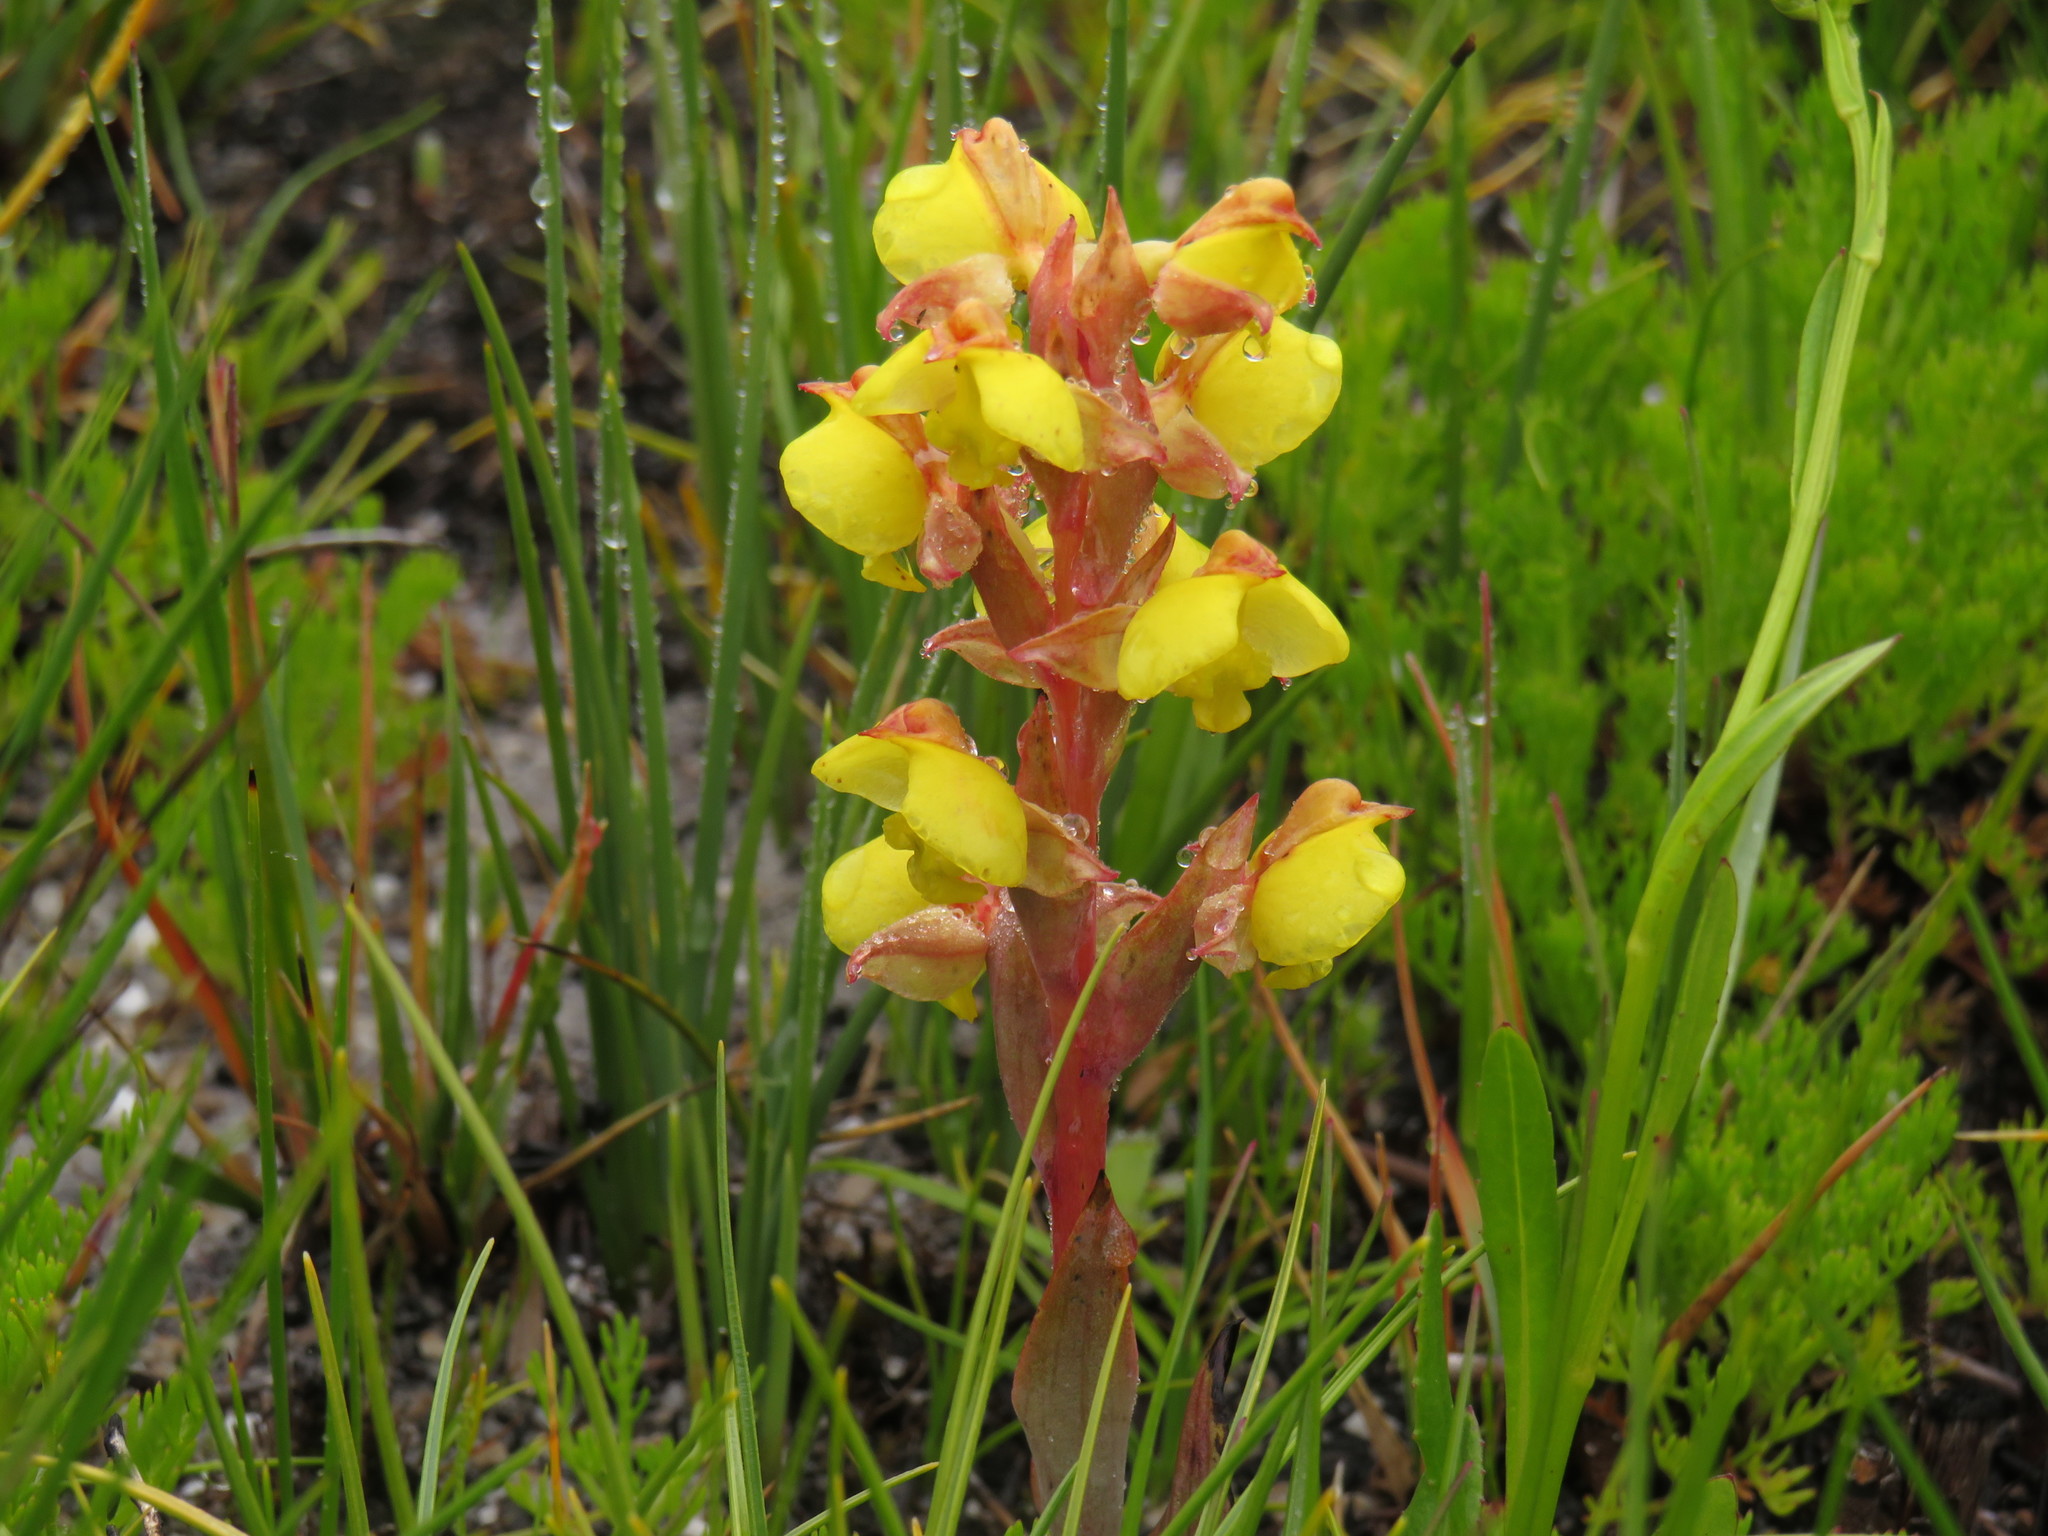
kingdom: Plantae
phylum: Tracheophyta
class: Liliopsida
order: Asparagales
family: Orchidaceae
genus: Pterygodium
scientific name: Pterygodium acutifolium
